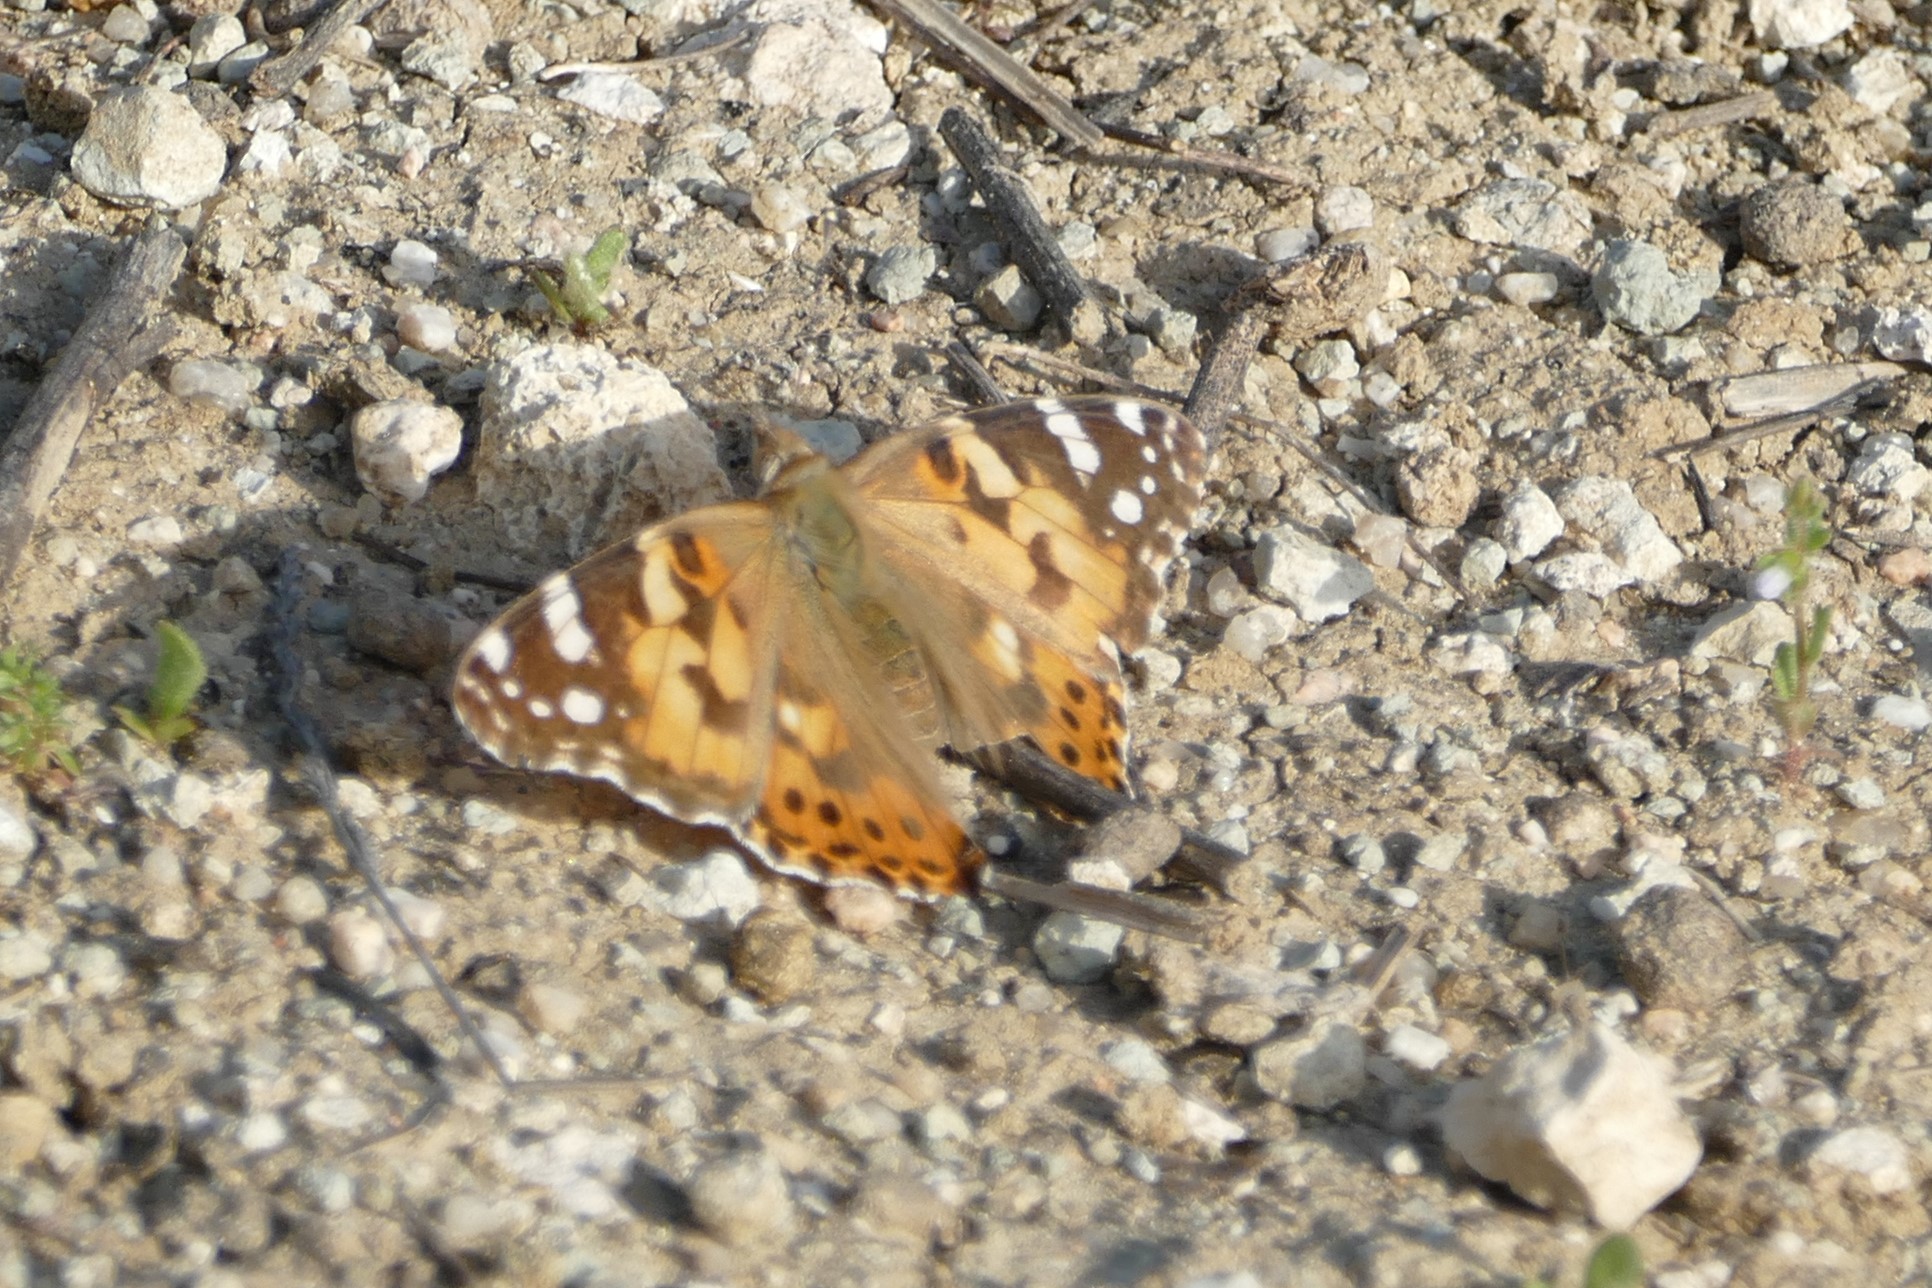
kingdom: Animalia
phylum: Arthropoda
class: Insecta
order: Lepidoptera
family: Nymphalidae
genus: Vanessa
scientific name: Vanessa cardui
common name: Painted lady
